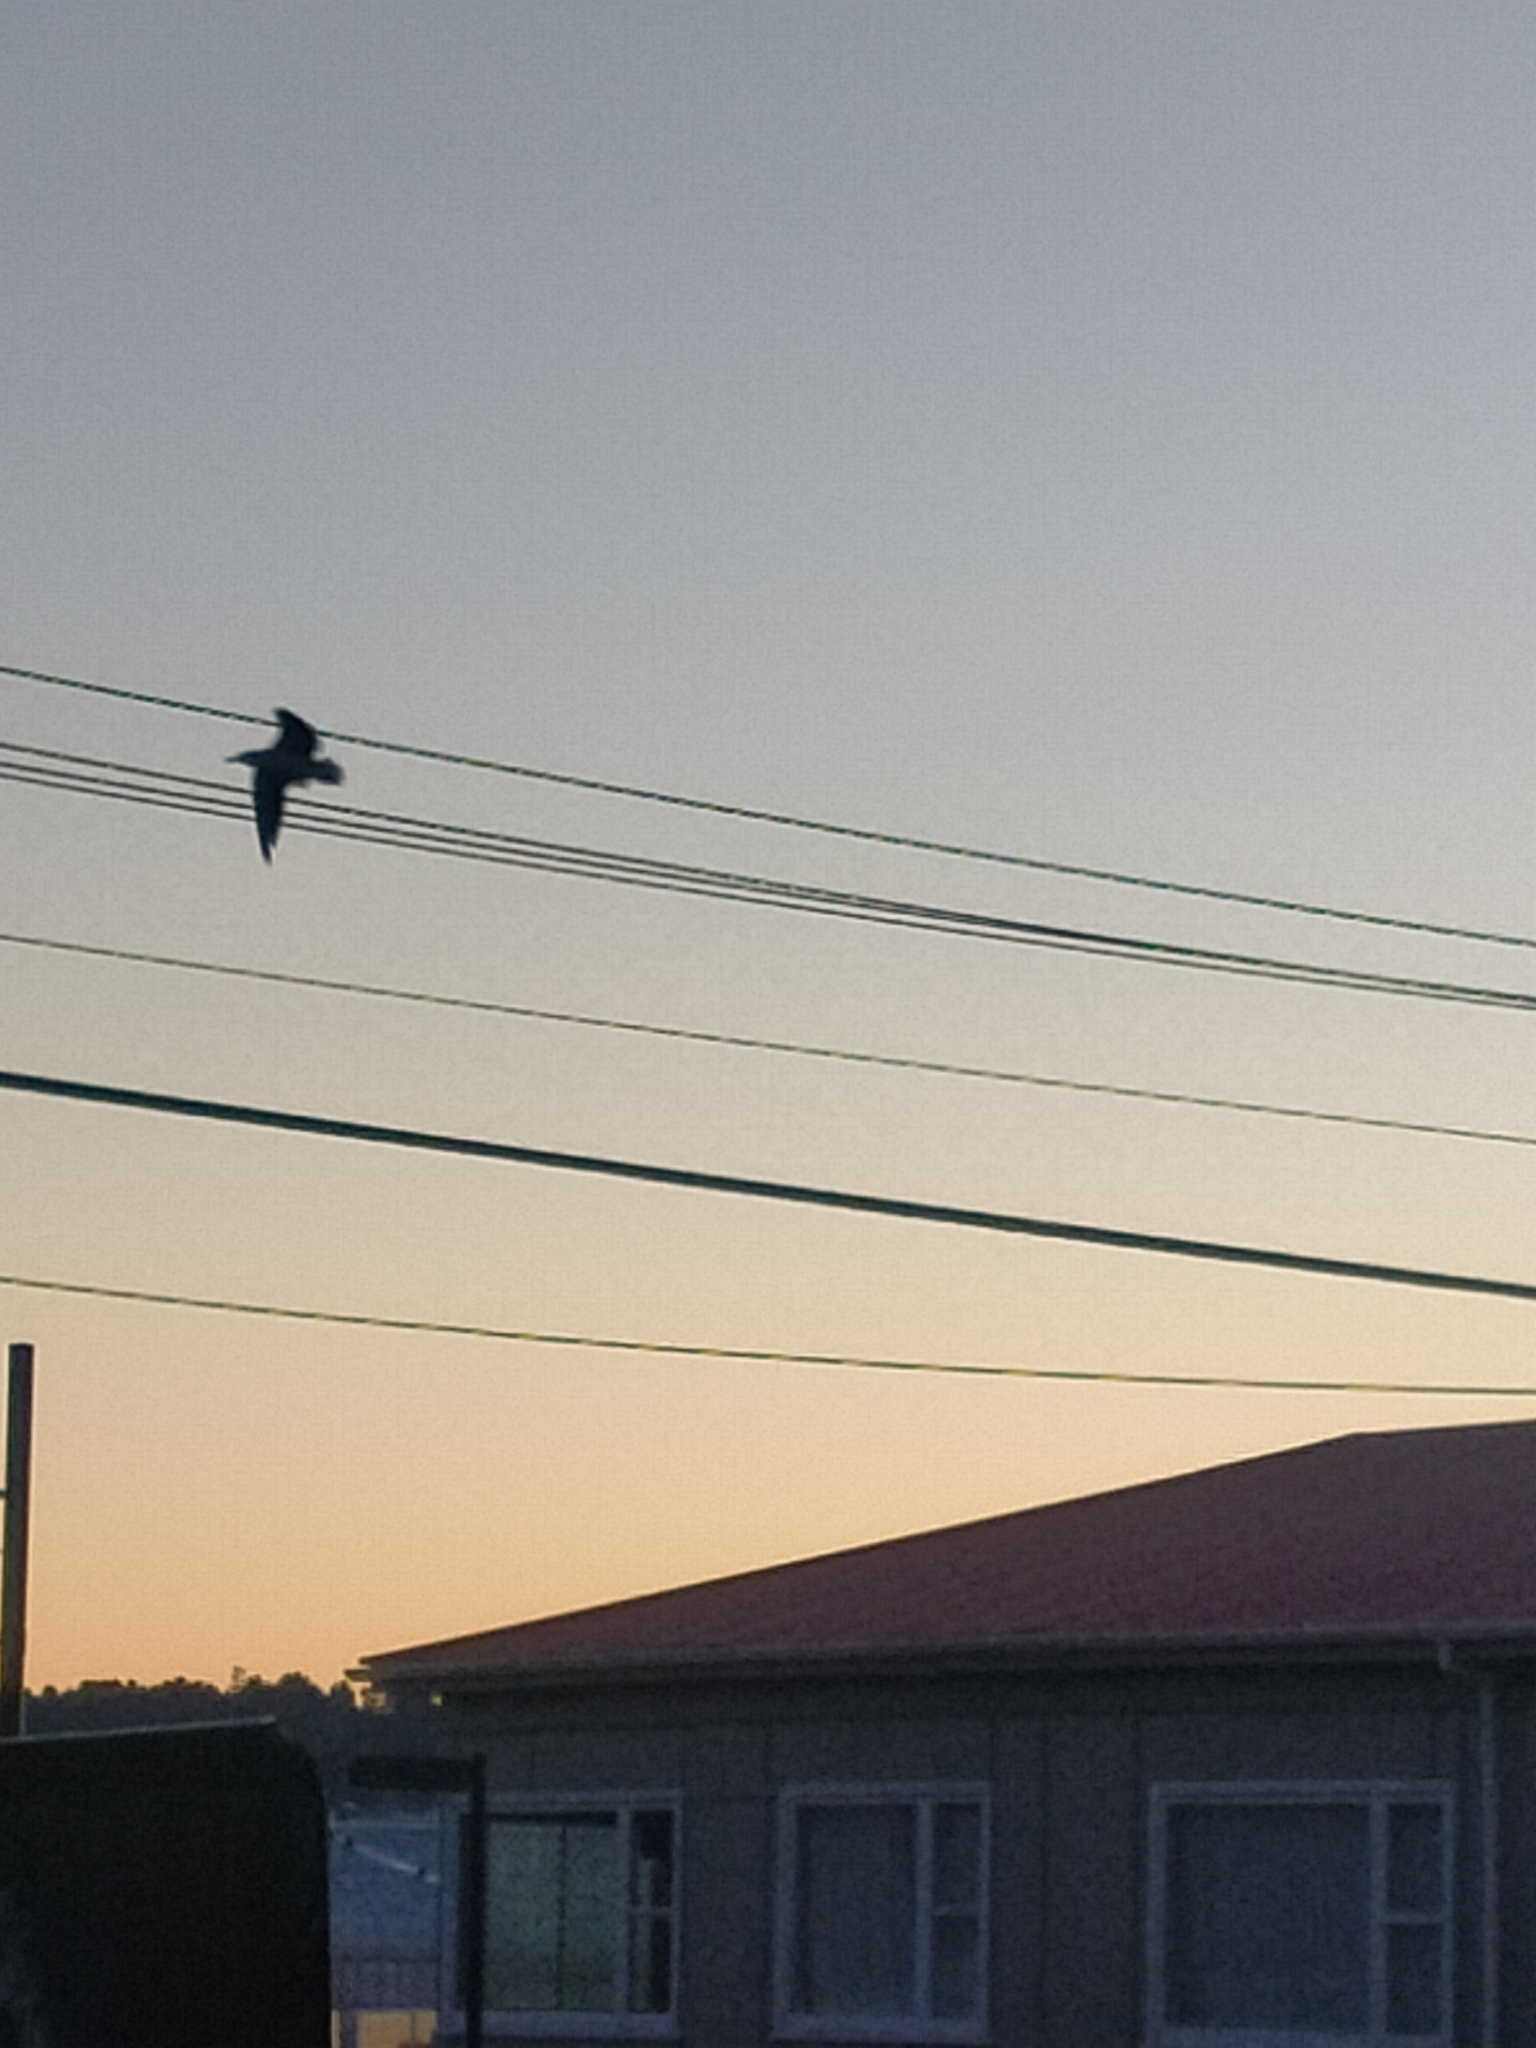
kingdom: Animalia
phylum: Chordata
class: Aves
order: Charadriiformes
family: Laridae
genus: Larus
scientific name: Larus dominicanus
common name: Kelp gull
